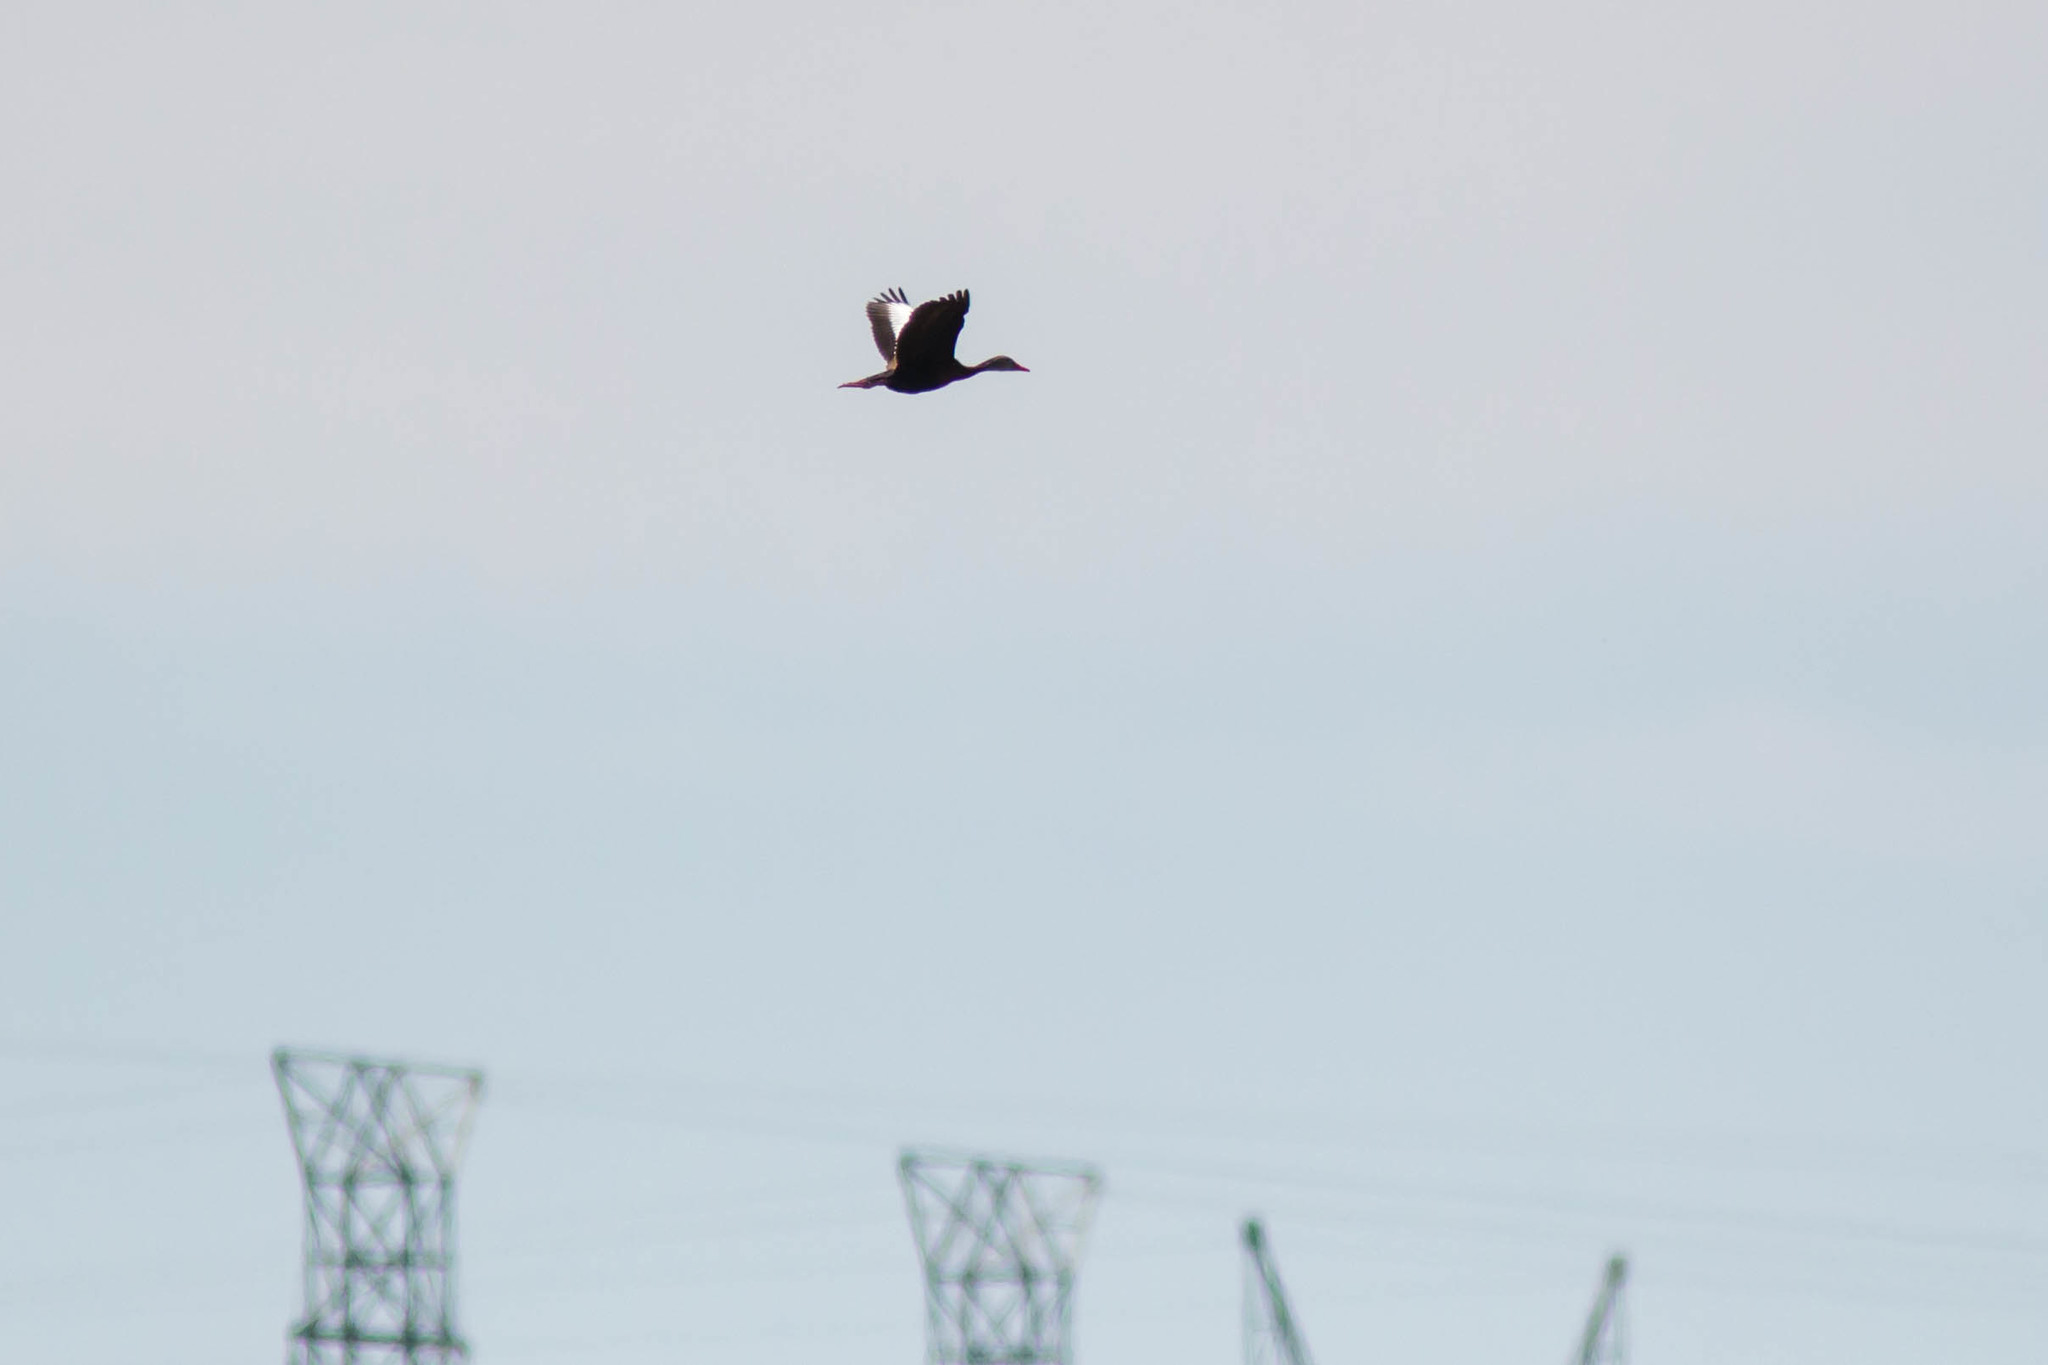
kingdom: Animalia
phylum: Chordata
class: Aves
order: Anseriformes
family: Anatidae
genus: Dendrocygna
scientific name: Dendrocygna autumnalis
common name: Black-bellied whistling duck
